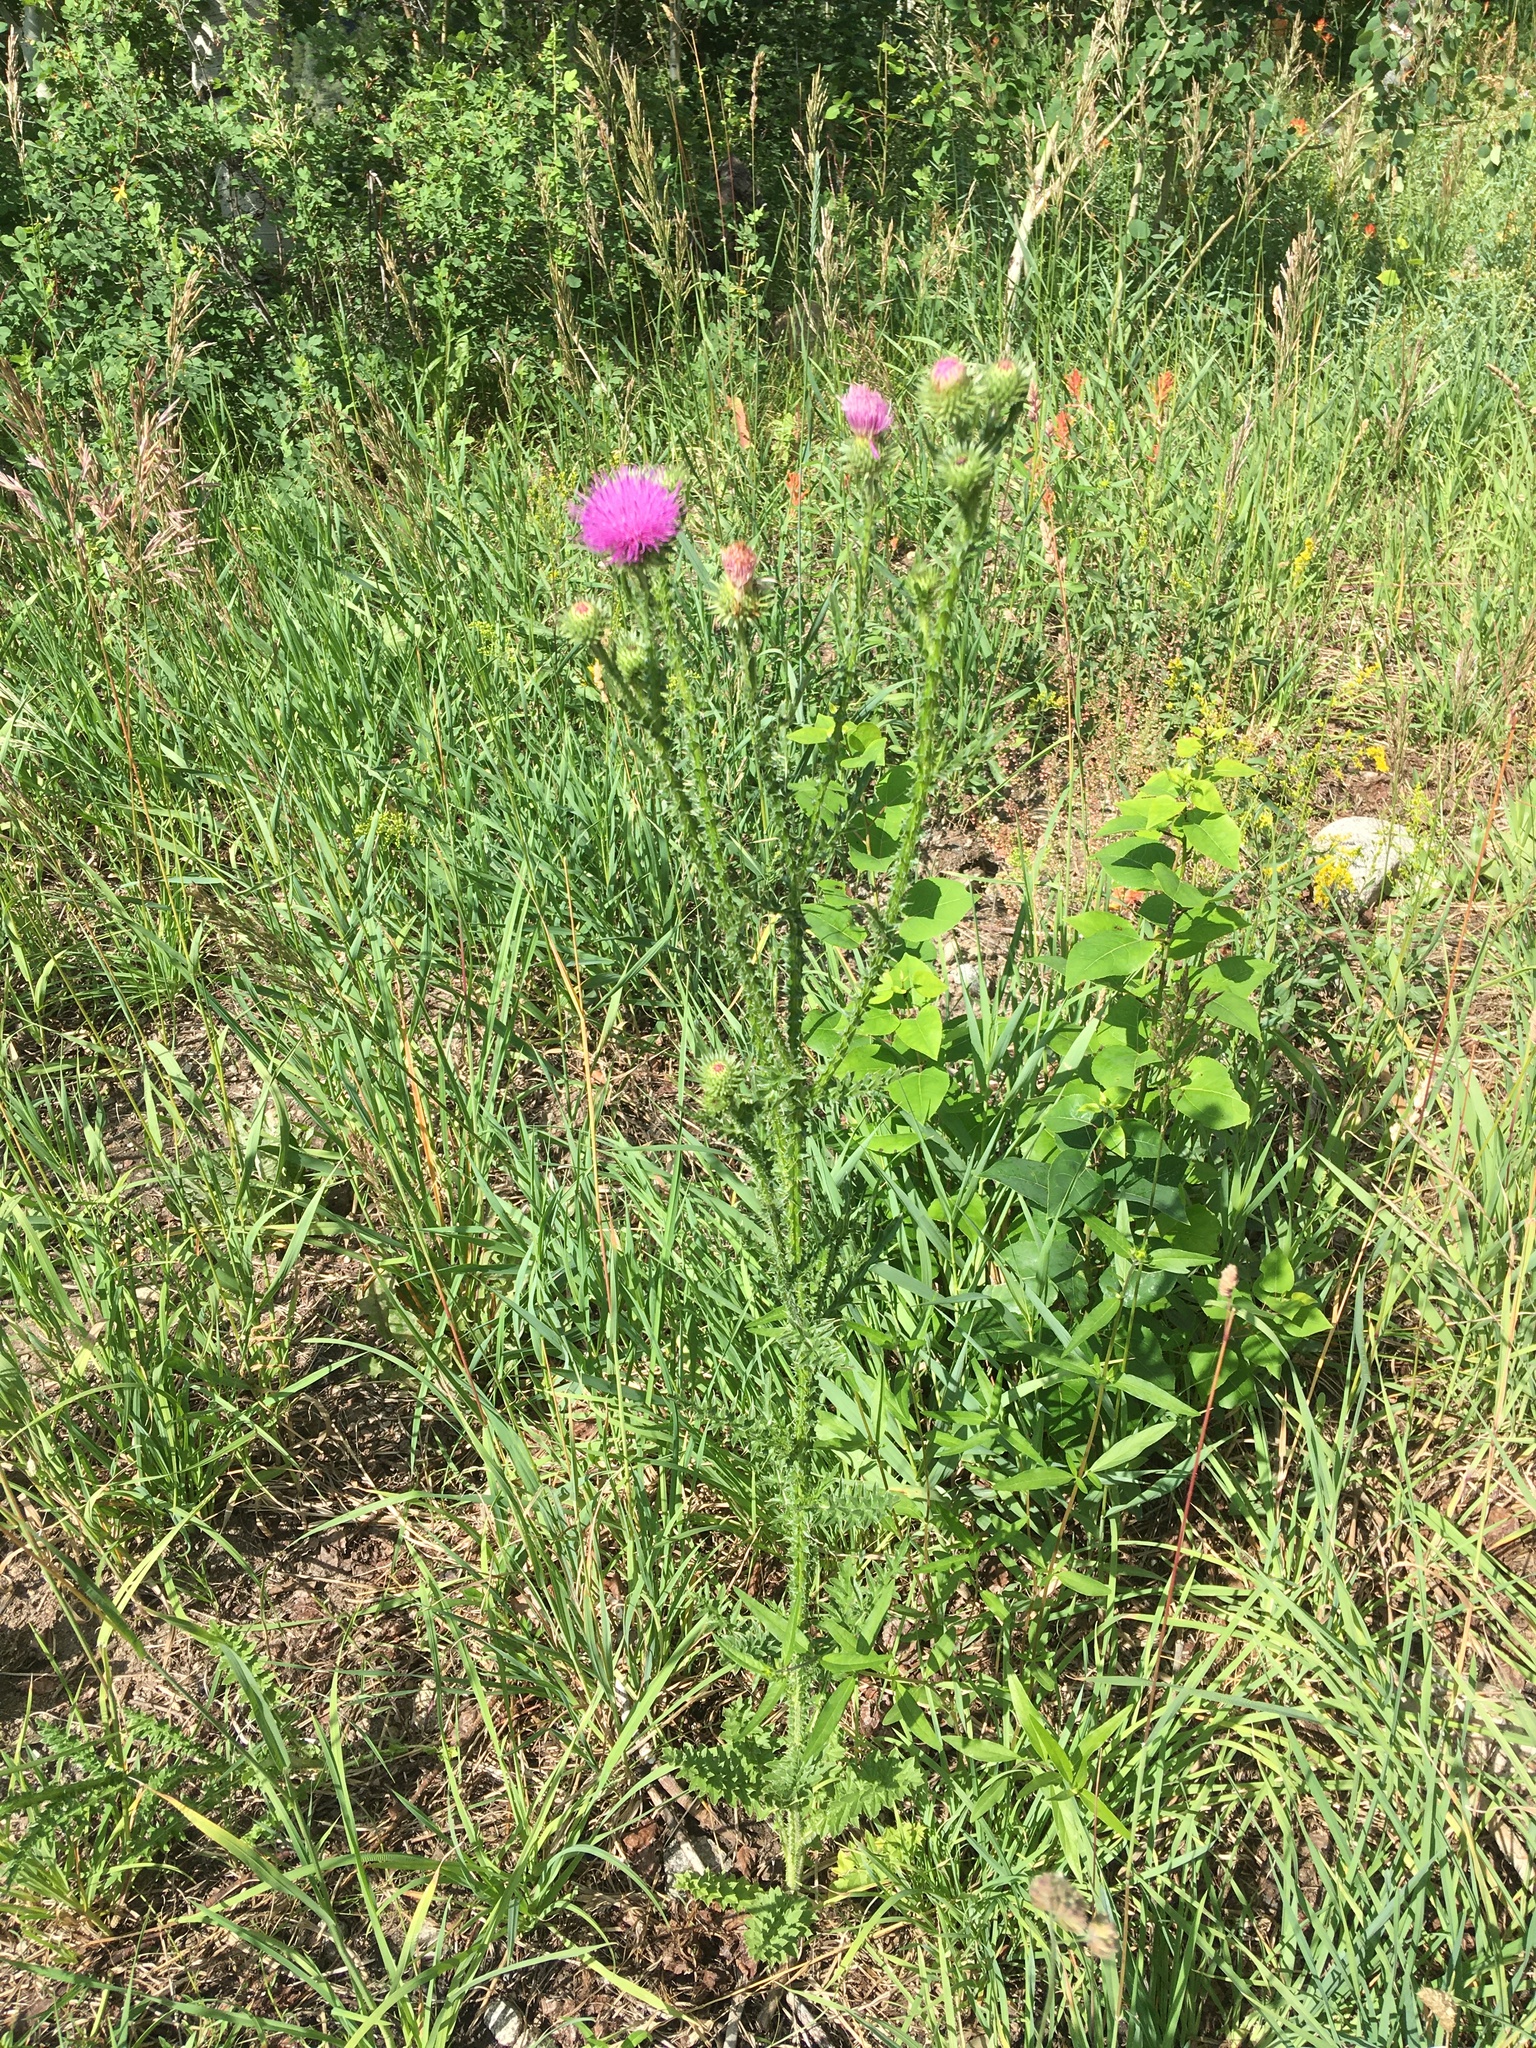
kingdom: Plantae
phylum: Tracheophyta
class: Magnoliopsida
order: Asterales
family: Asteraceae
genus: Carduus
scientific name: Carduus acanthoides
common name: Plumeless thistle
